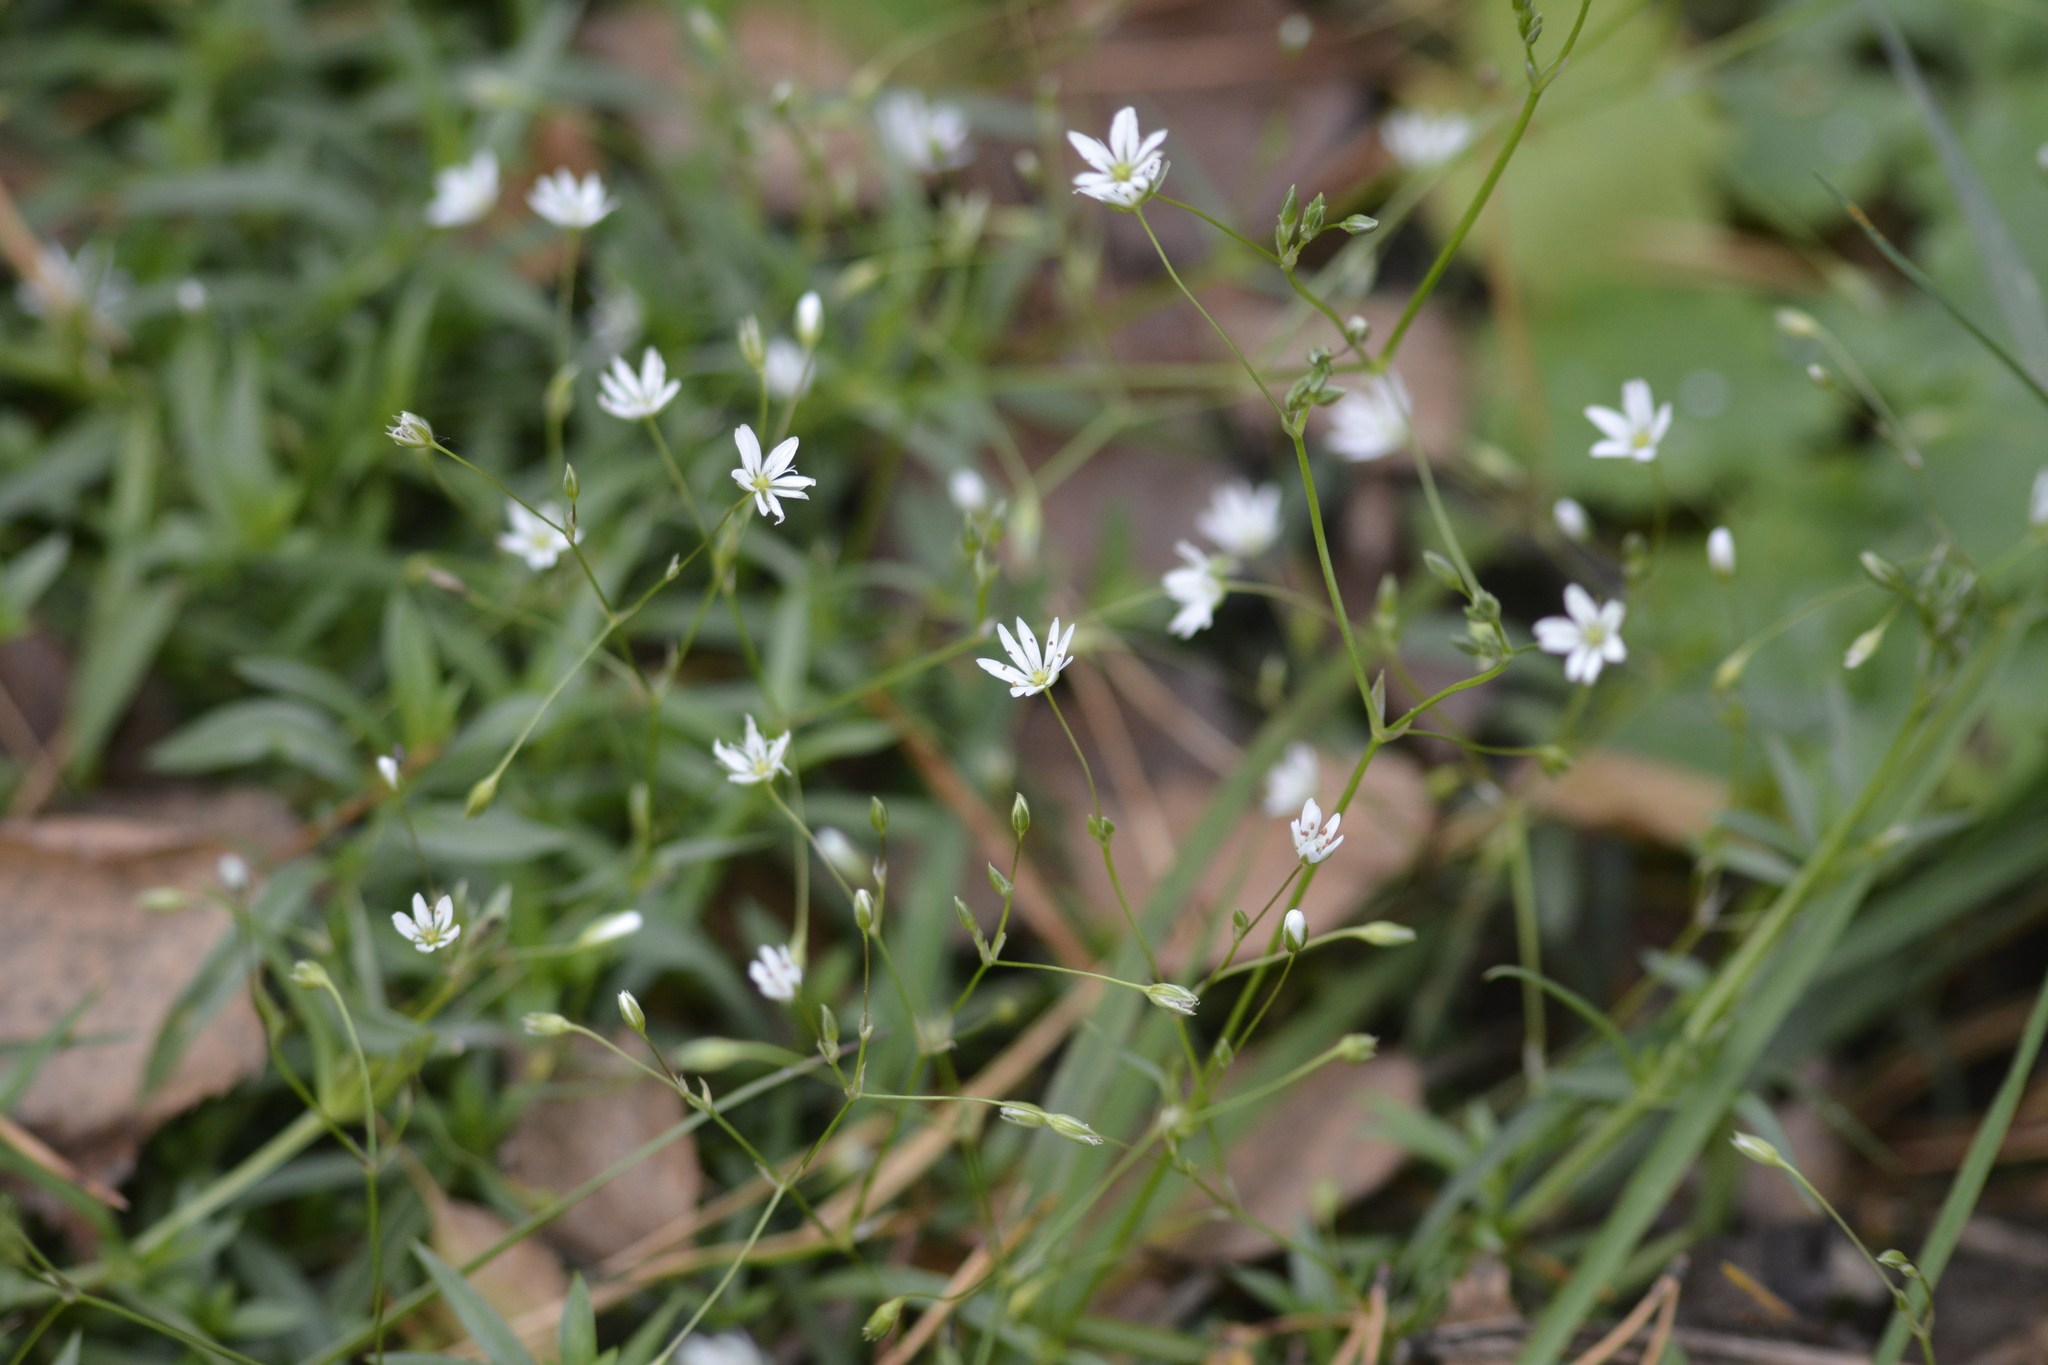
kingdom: Plantae
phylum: Tracheophyta
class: Magnoliopsida
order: Caryophyllales
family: Caryophyllaceae
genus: Stellaria
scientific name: Stellaria graminea
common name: Grass-like starwort
